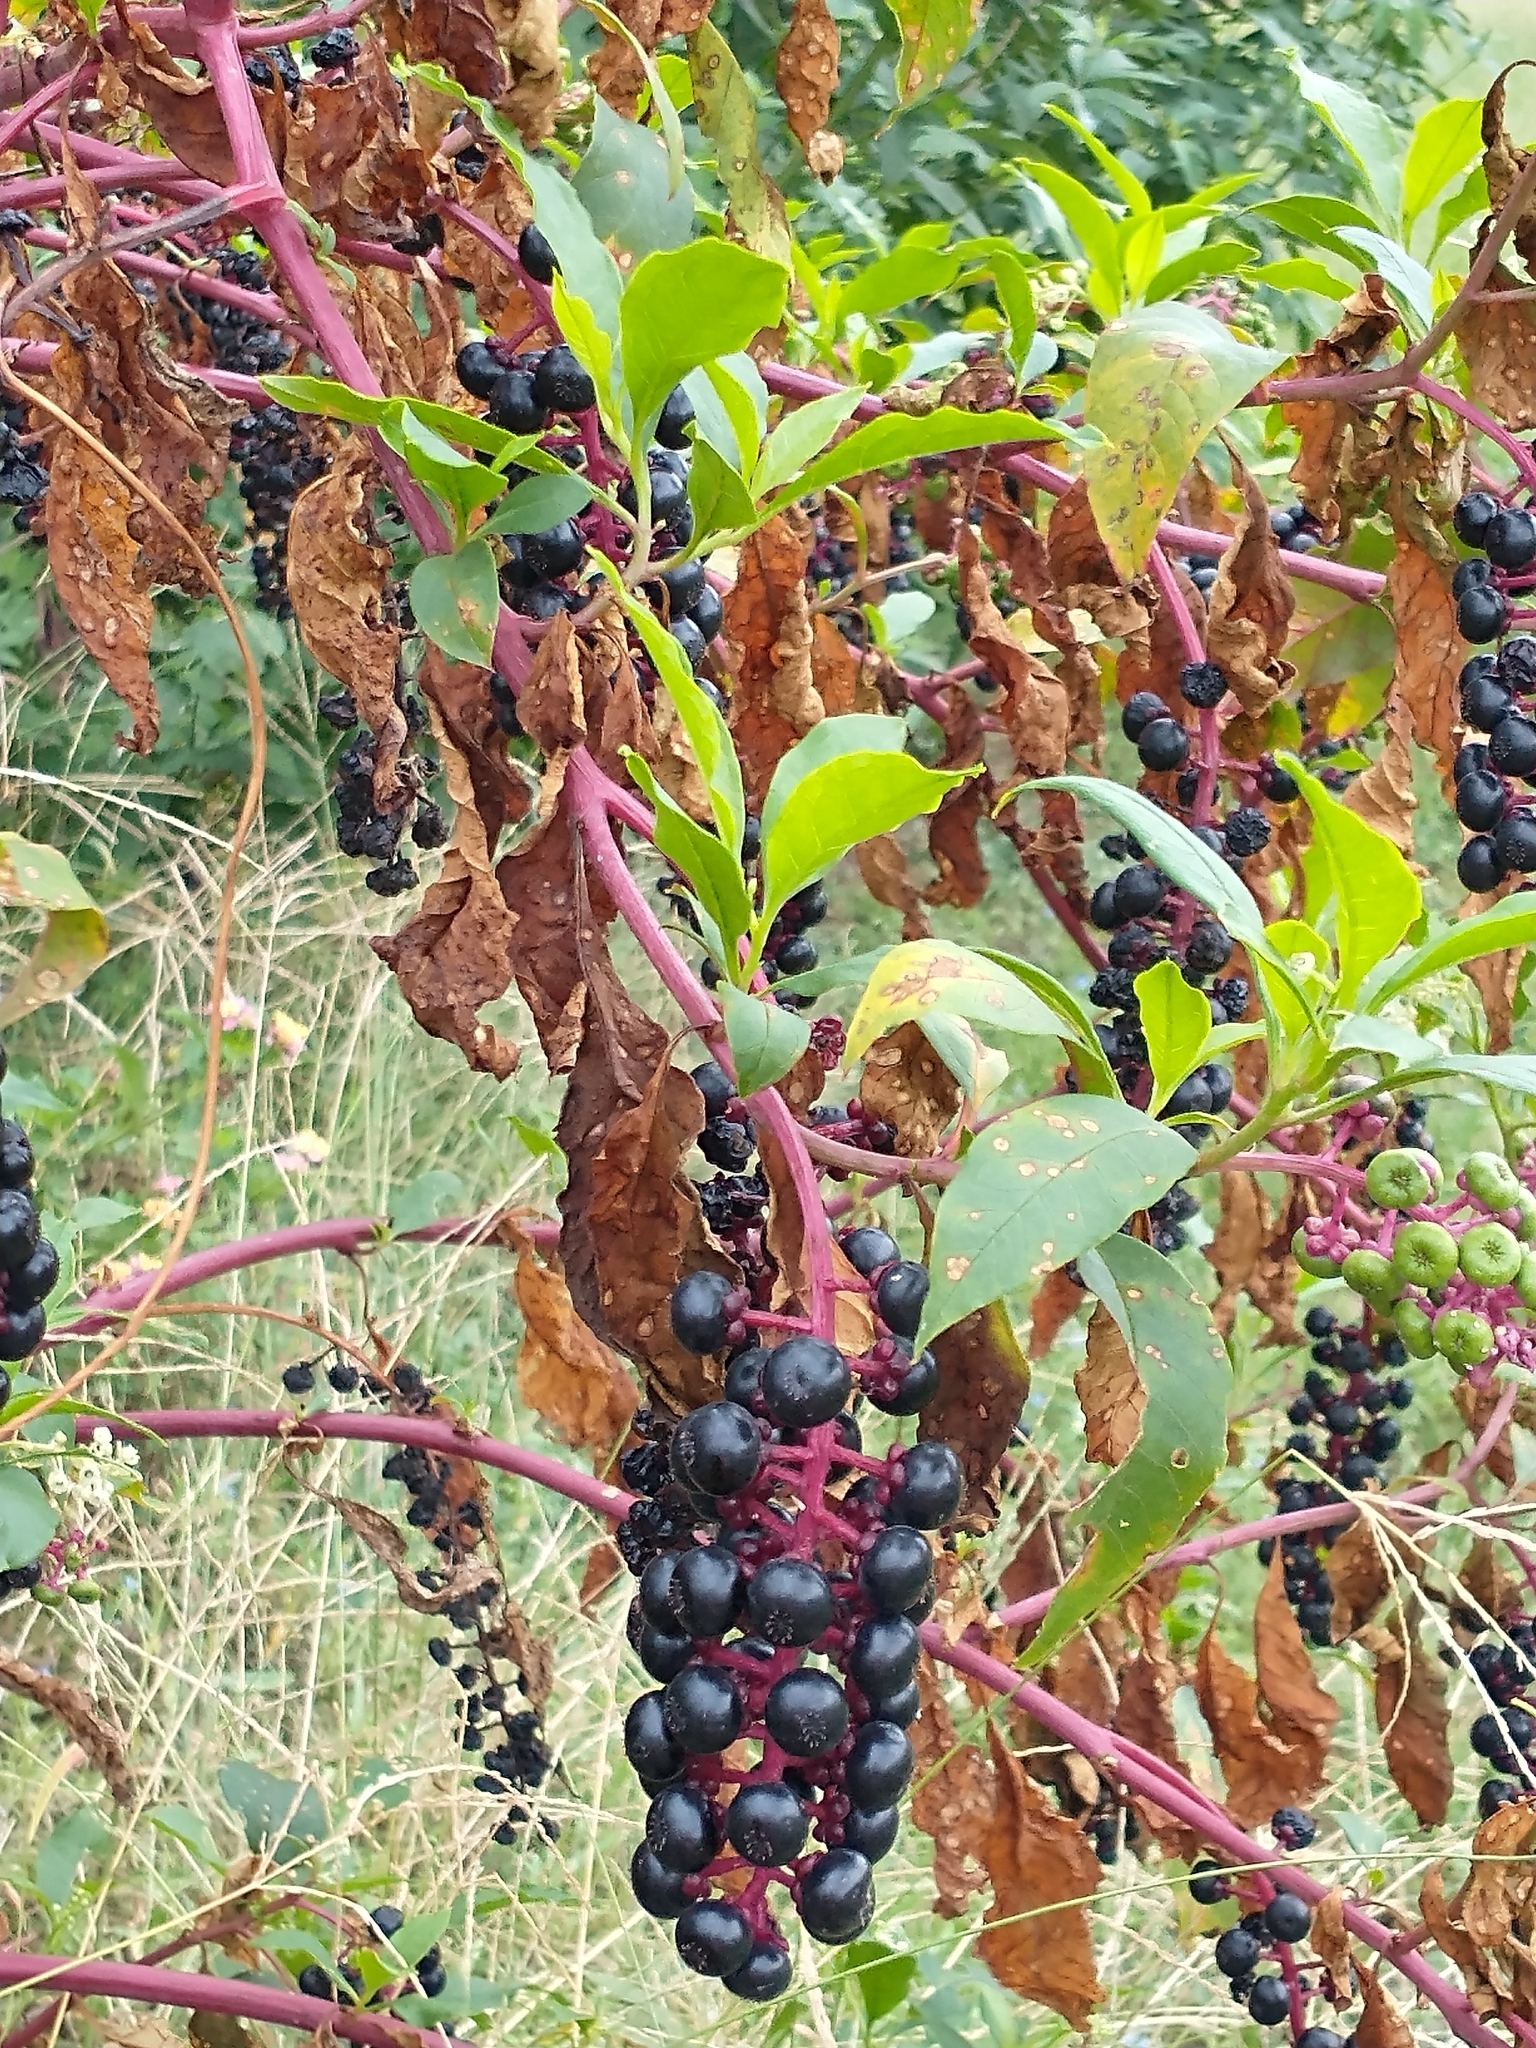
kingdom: Plantae
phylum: Tracheophyta
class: Magnoliopsida
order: Caryophyllales
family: Phytolaccaceae
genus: Phytolacca
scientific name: Phytolacca americana
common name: American pokeweed
